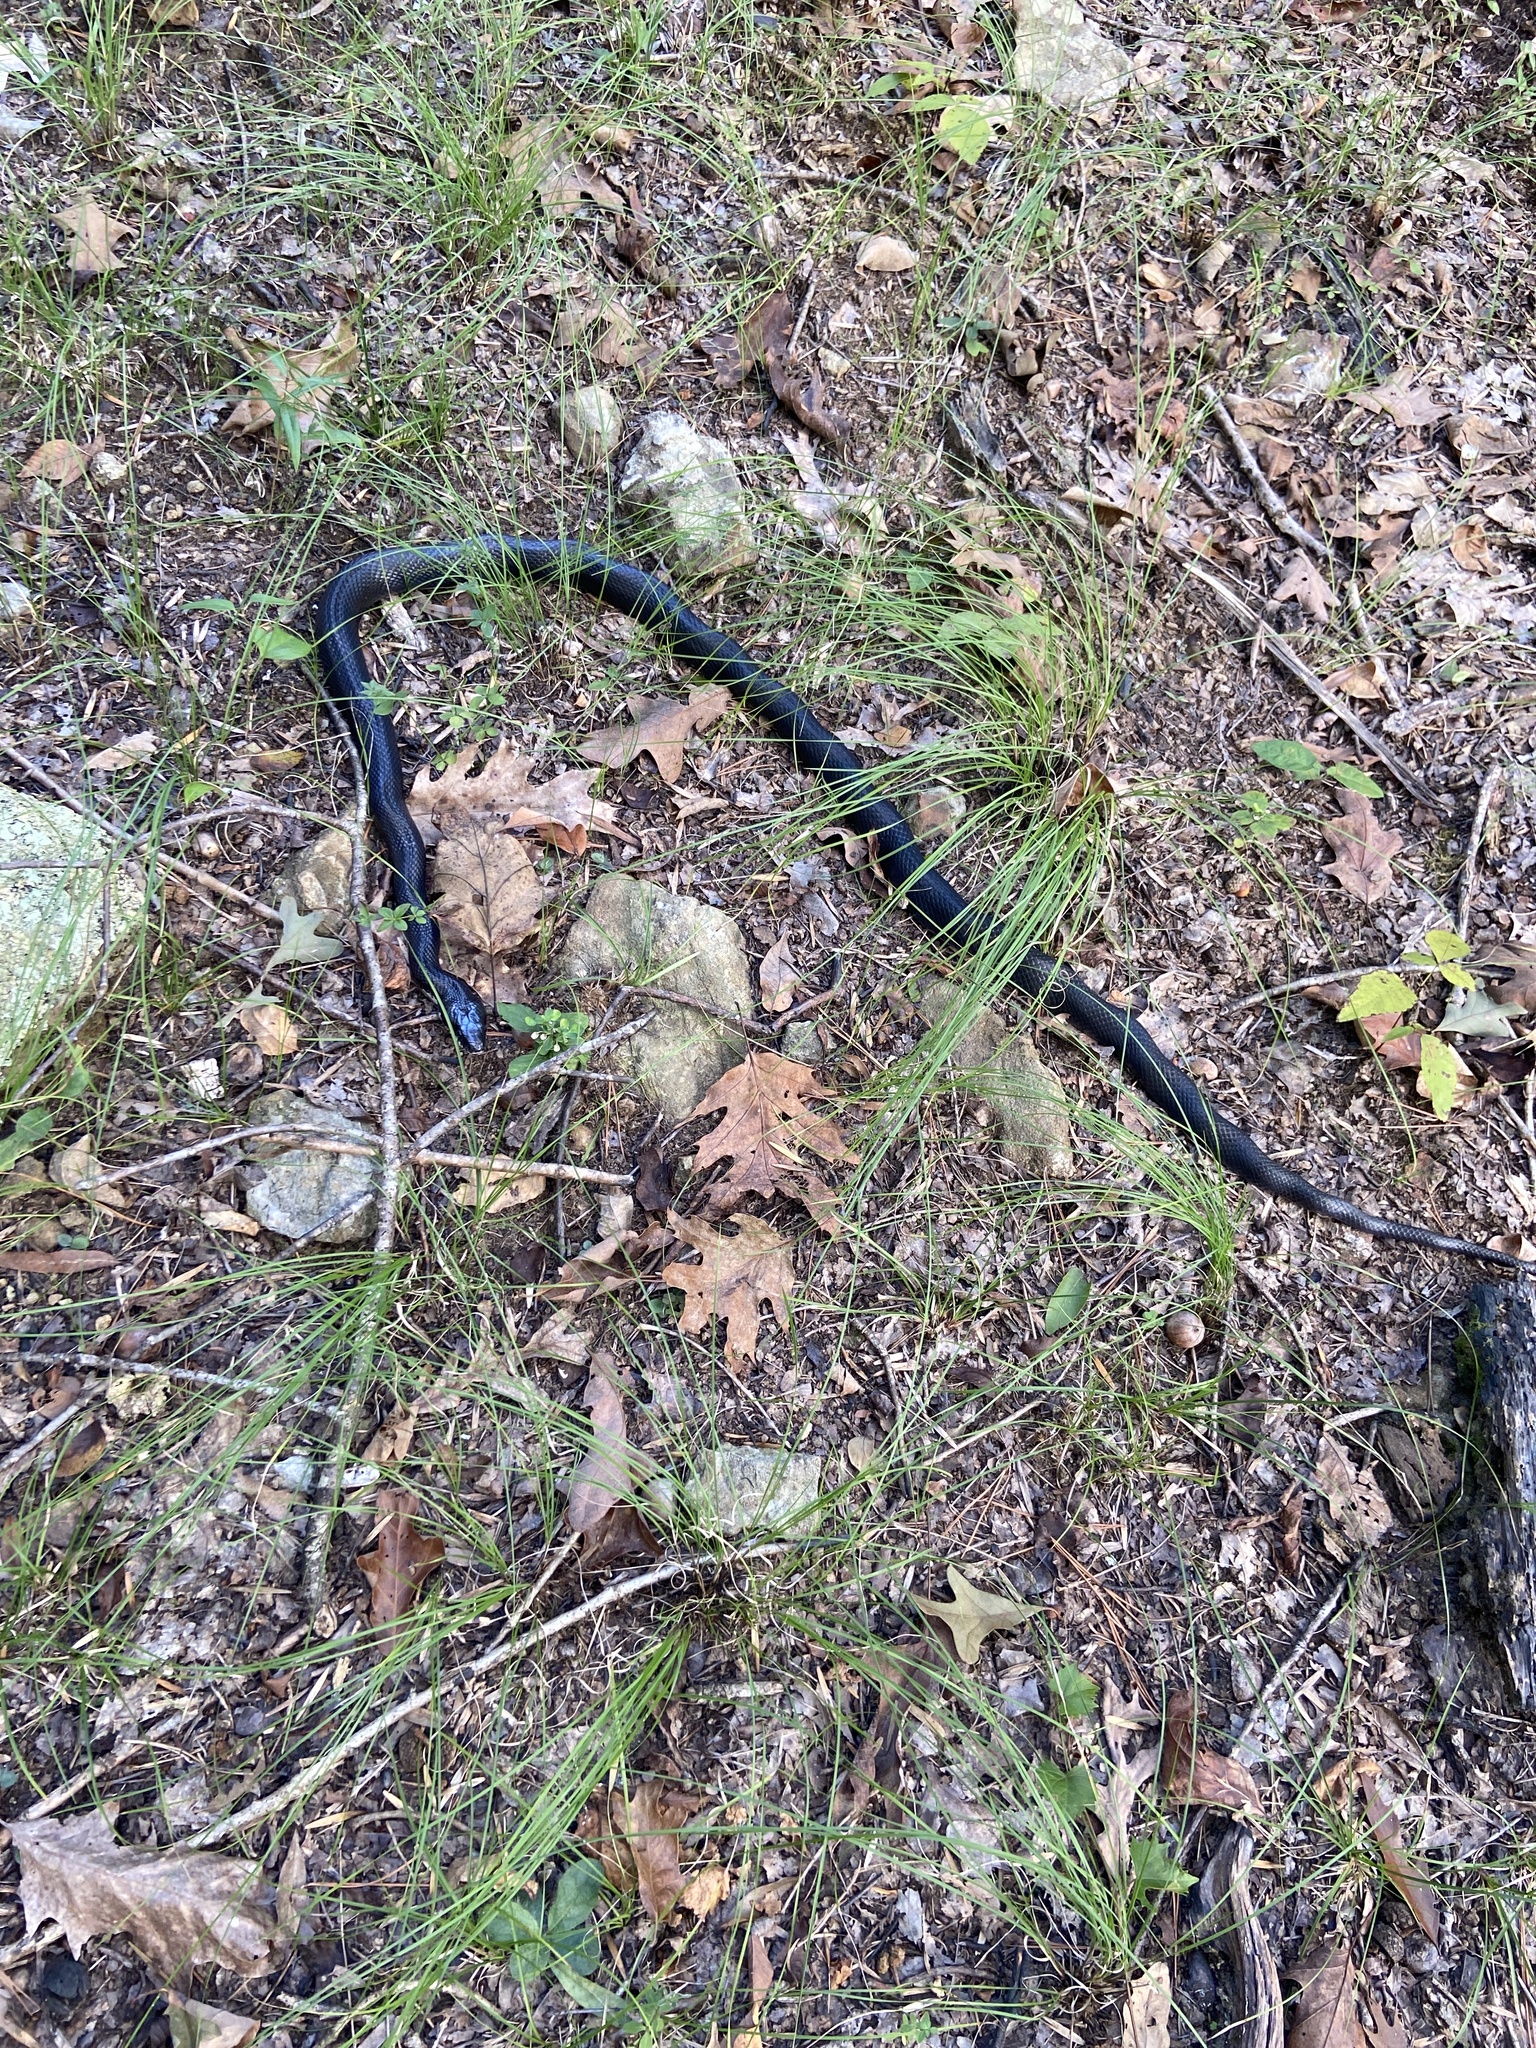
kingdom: Animalia
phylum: Chordata
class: Squamata
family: Colubridae
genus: Pantherophis
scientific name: Pantherophis
